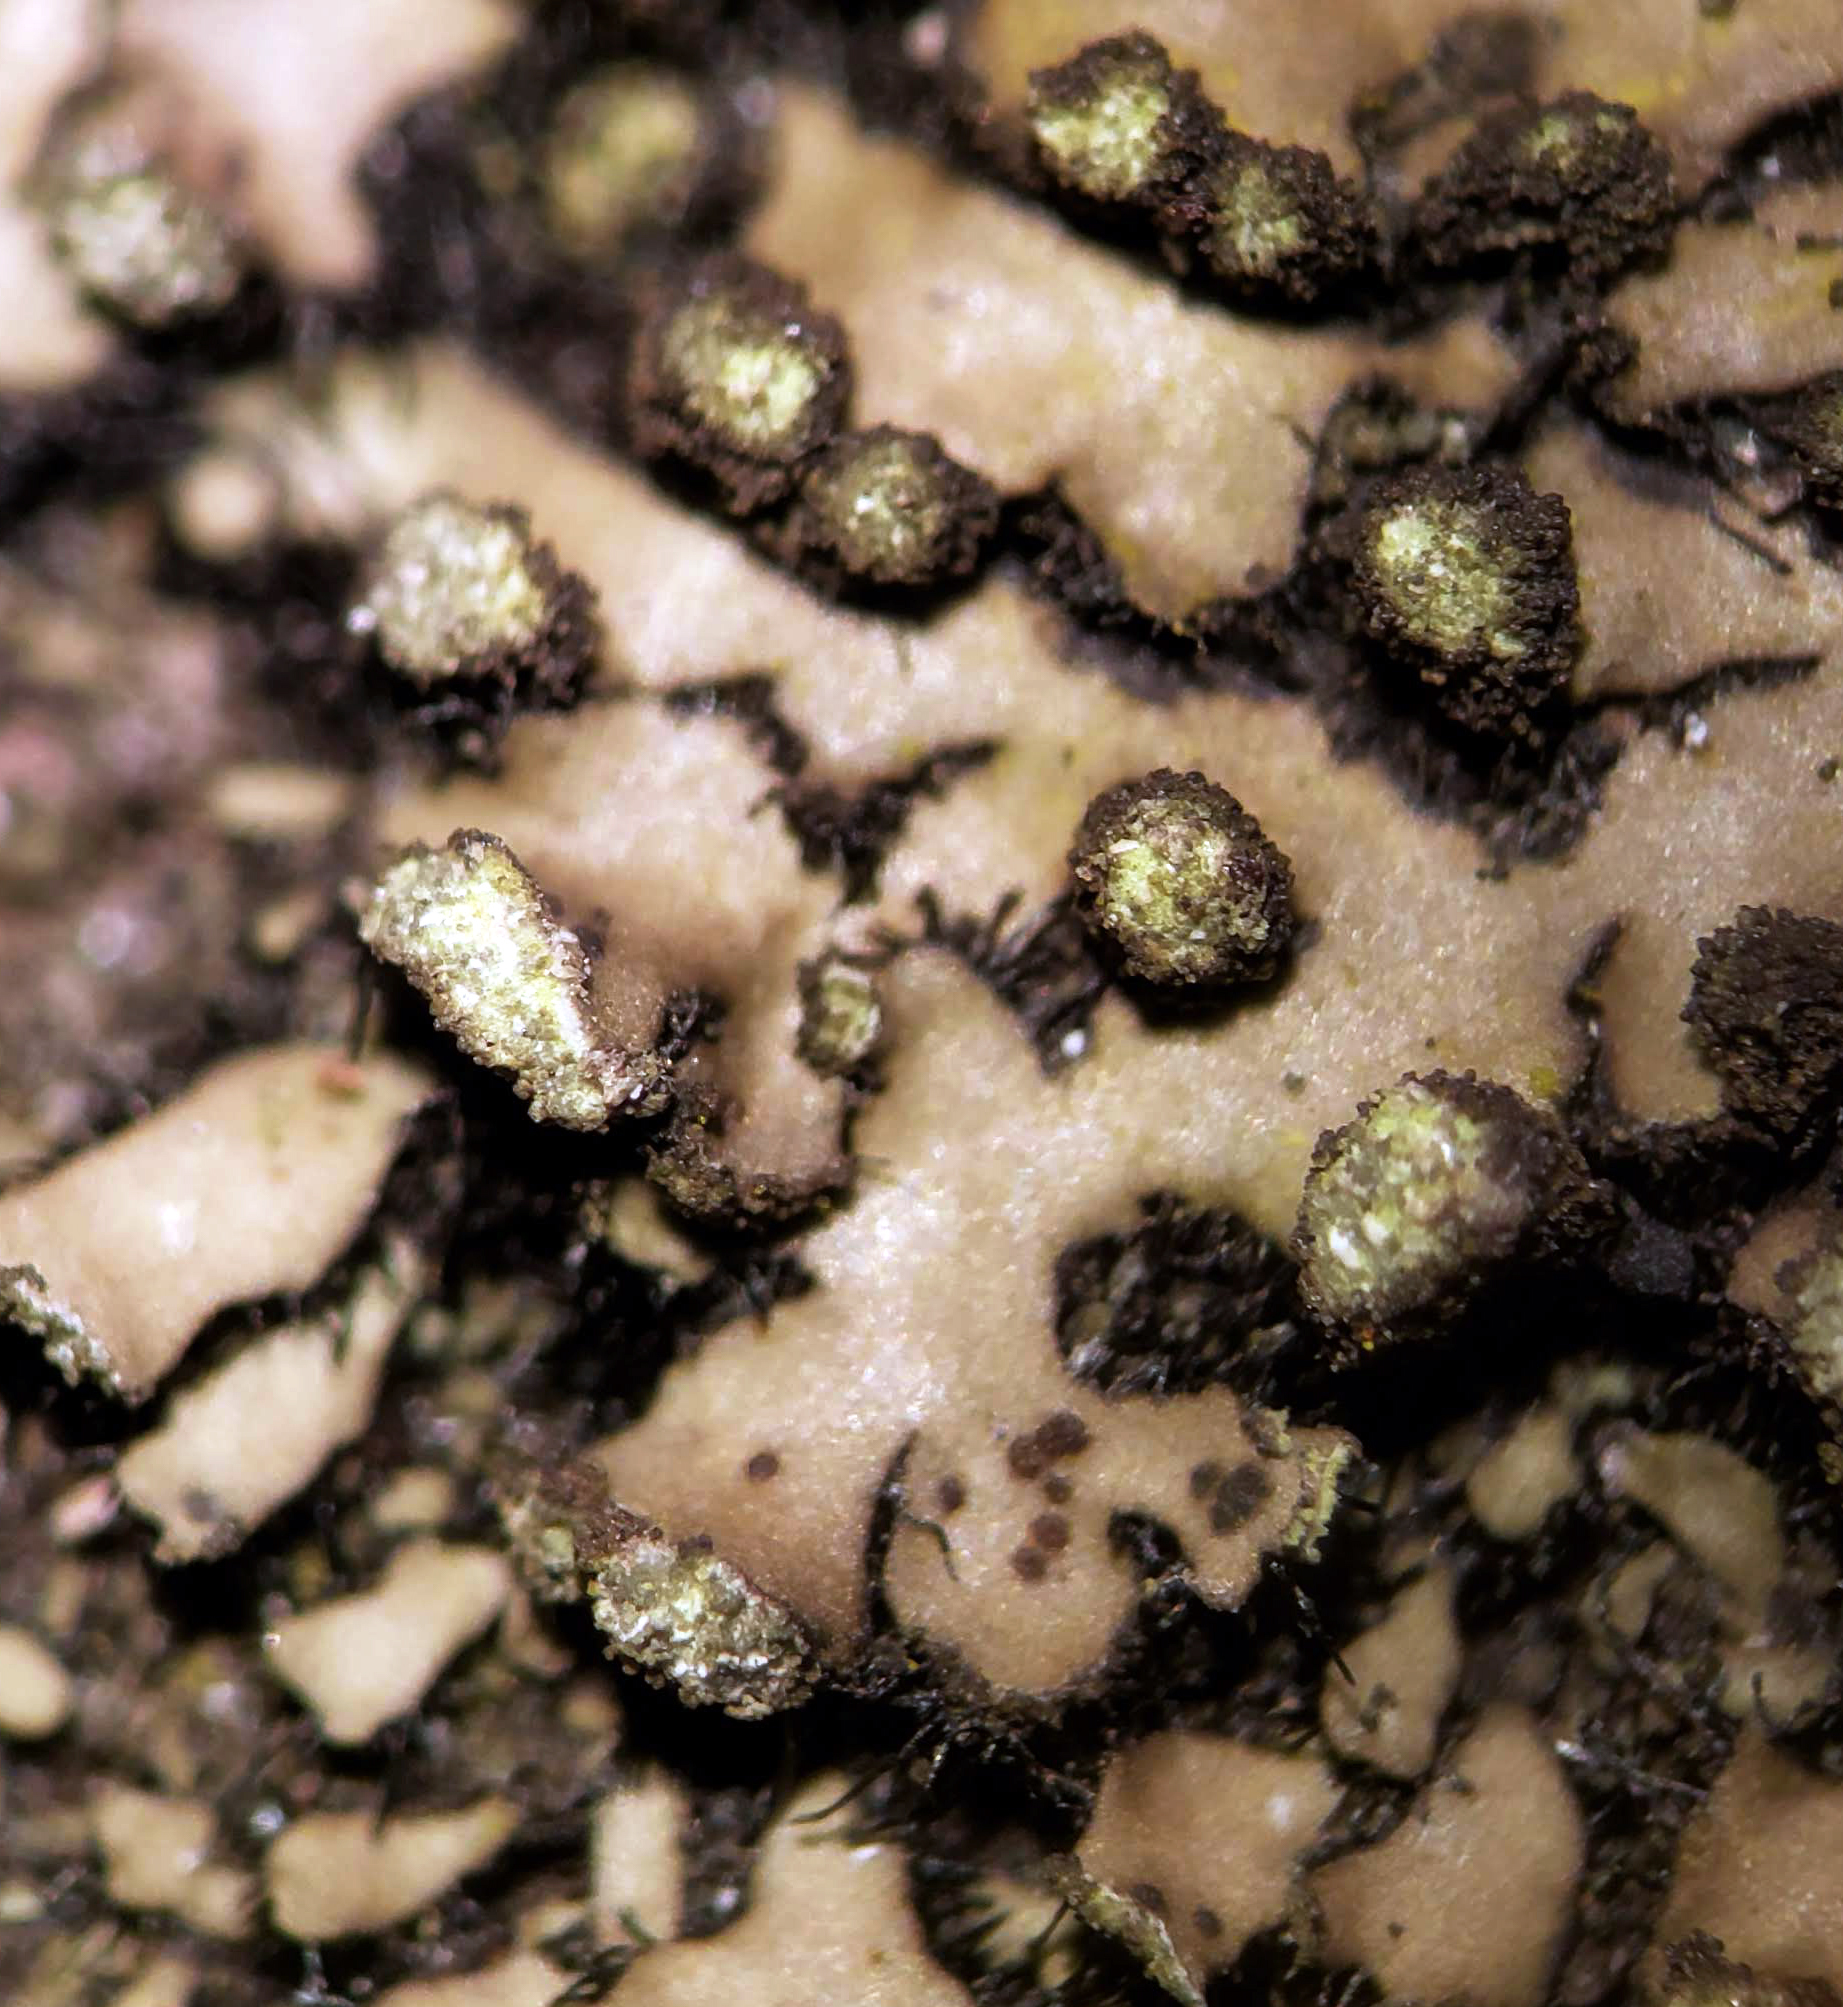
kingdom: Fungi
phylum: Ascomycota
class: Lecanoromycetes
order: Caliciales
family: Physciaceae
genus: Phaeophyscia
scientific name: Phaeophyscia pusilloides
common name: Pom-pom shadow lichen
